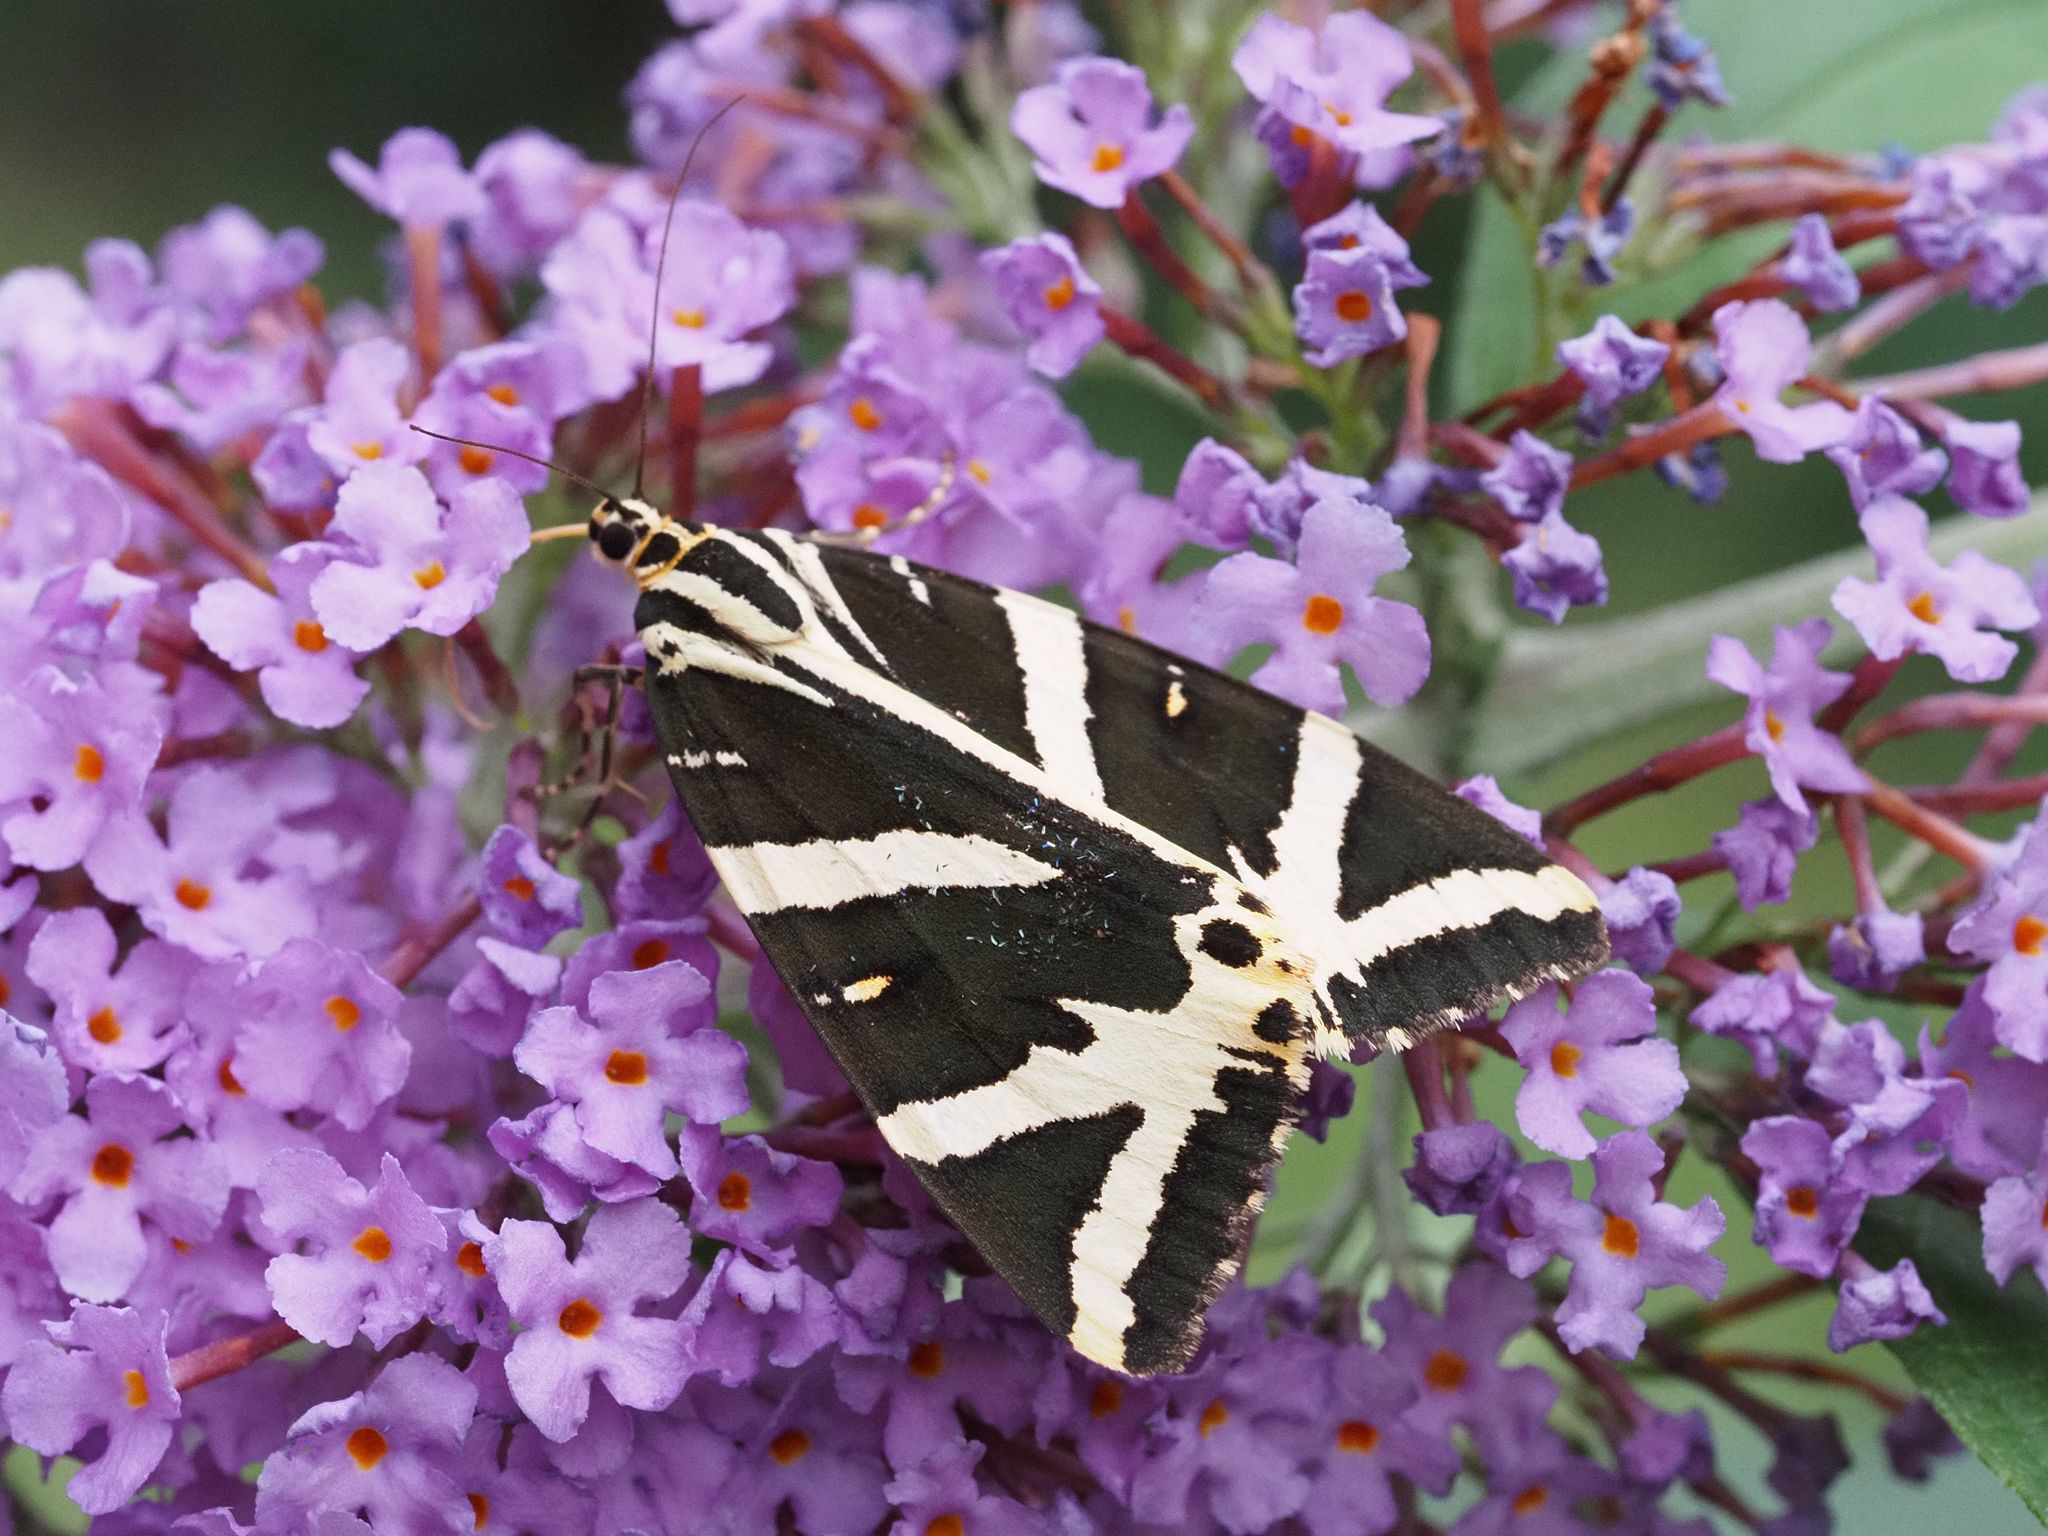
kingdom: Animalia
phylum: Arthropoda
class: Insecta
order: Lepidoptera
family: Erebidae
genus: Euplagia
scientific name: Euplagia quadripunctaria
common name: Jersey tiger
